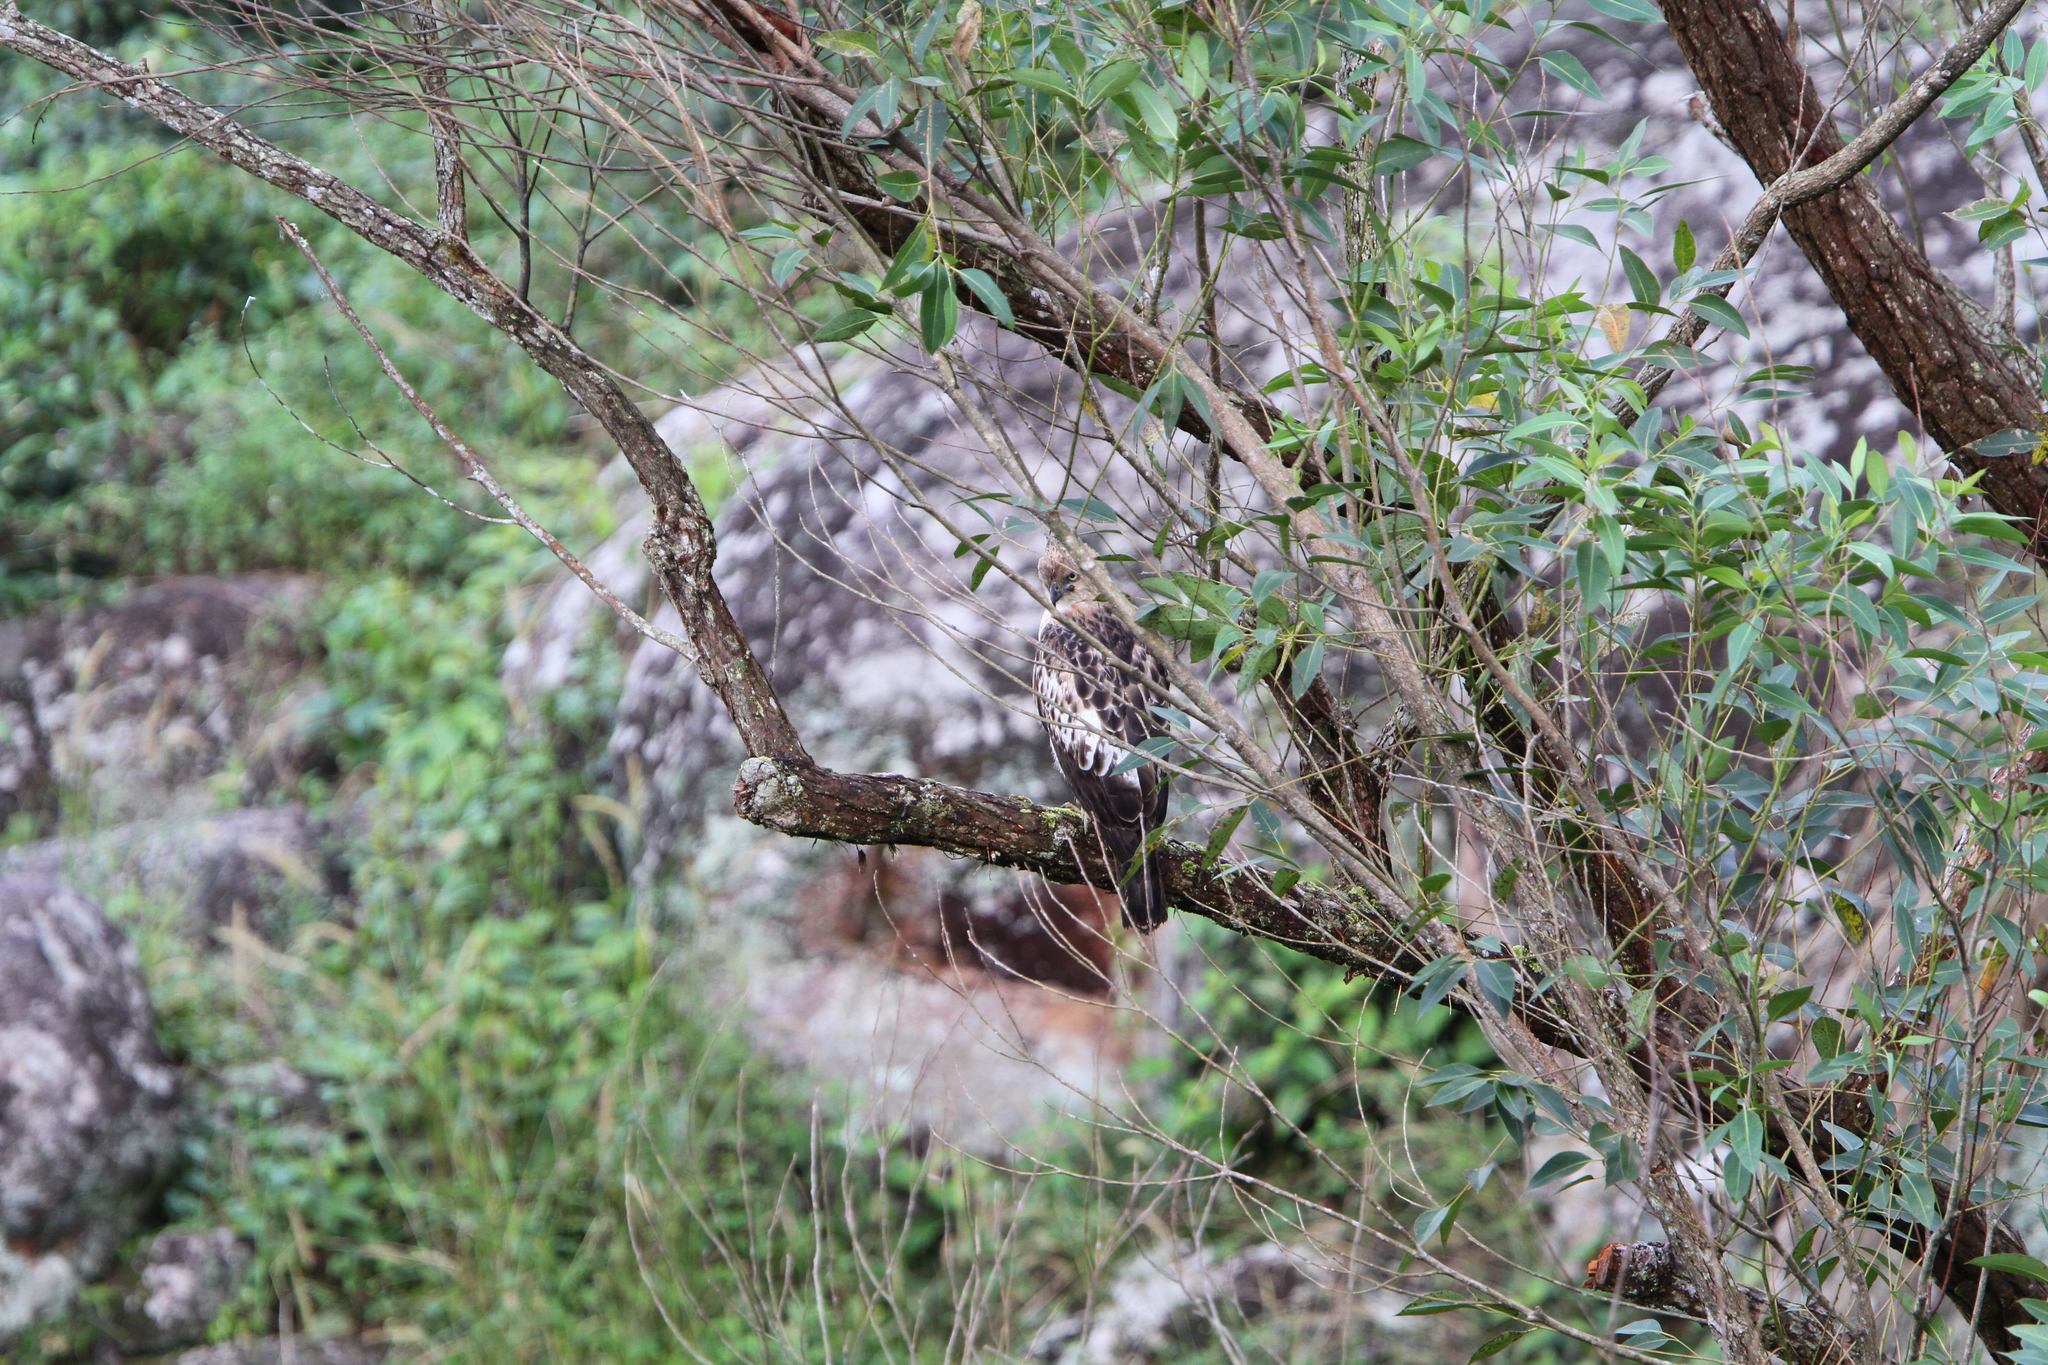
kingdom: Animalia
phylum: Chordata
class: Aves
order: Accipitriformes
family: Accipitridae
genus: Nisaetus
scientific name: Nisaetus cirrhatus
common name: Changeable hawk-eagle
